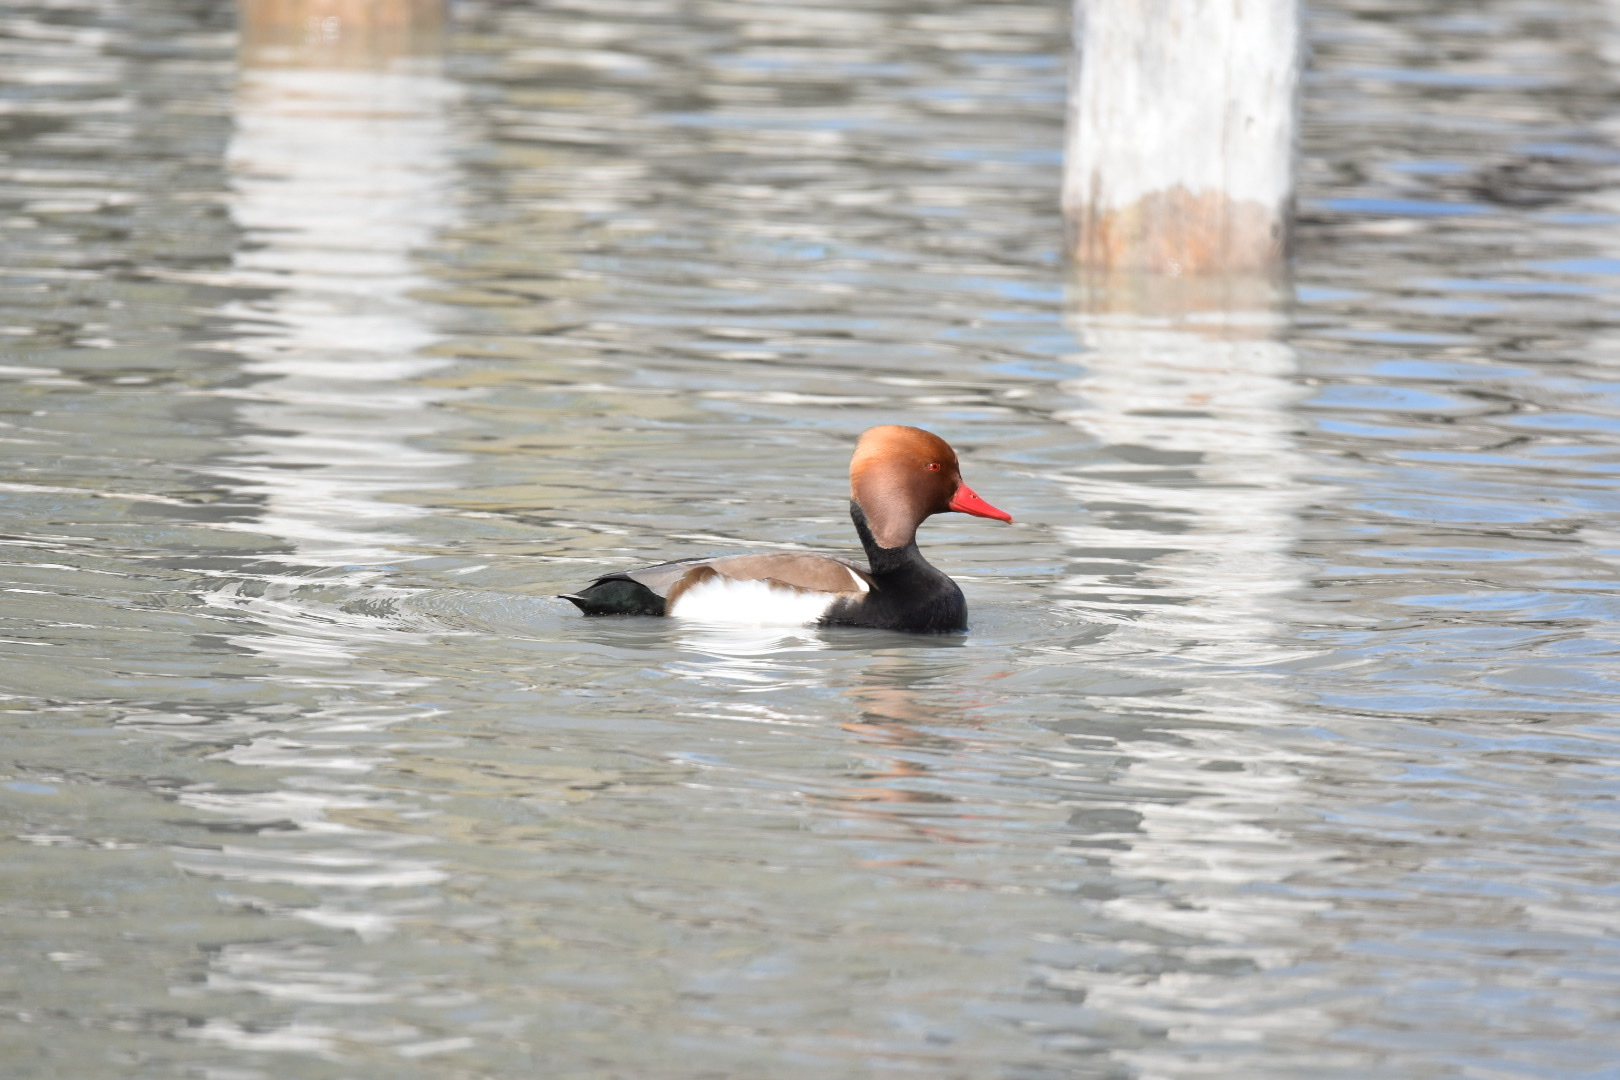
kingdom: Animalia
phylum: Chordata
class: Aves
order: Anseriformes
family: Anatidae
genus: Netta
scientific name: Netta rufina
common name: Red-crested pochard
